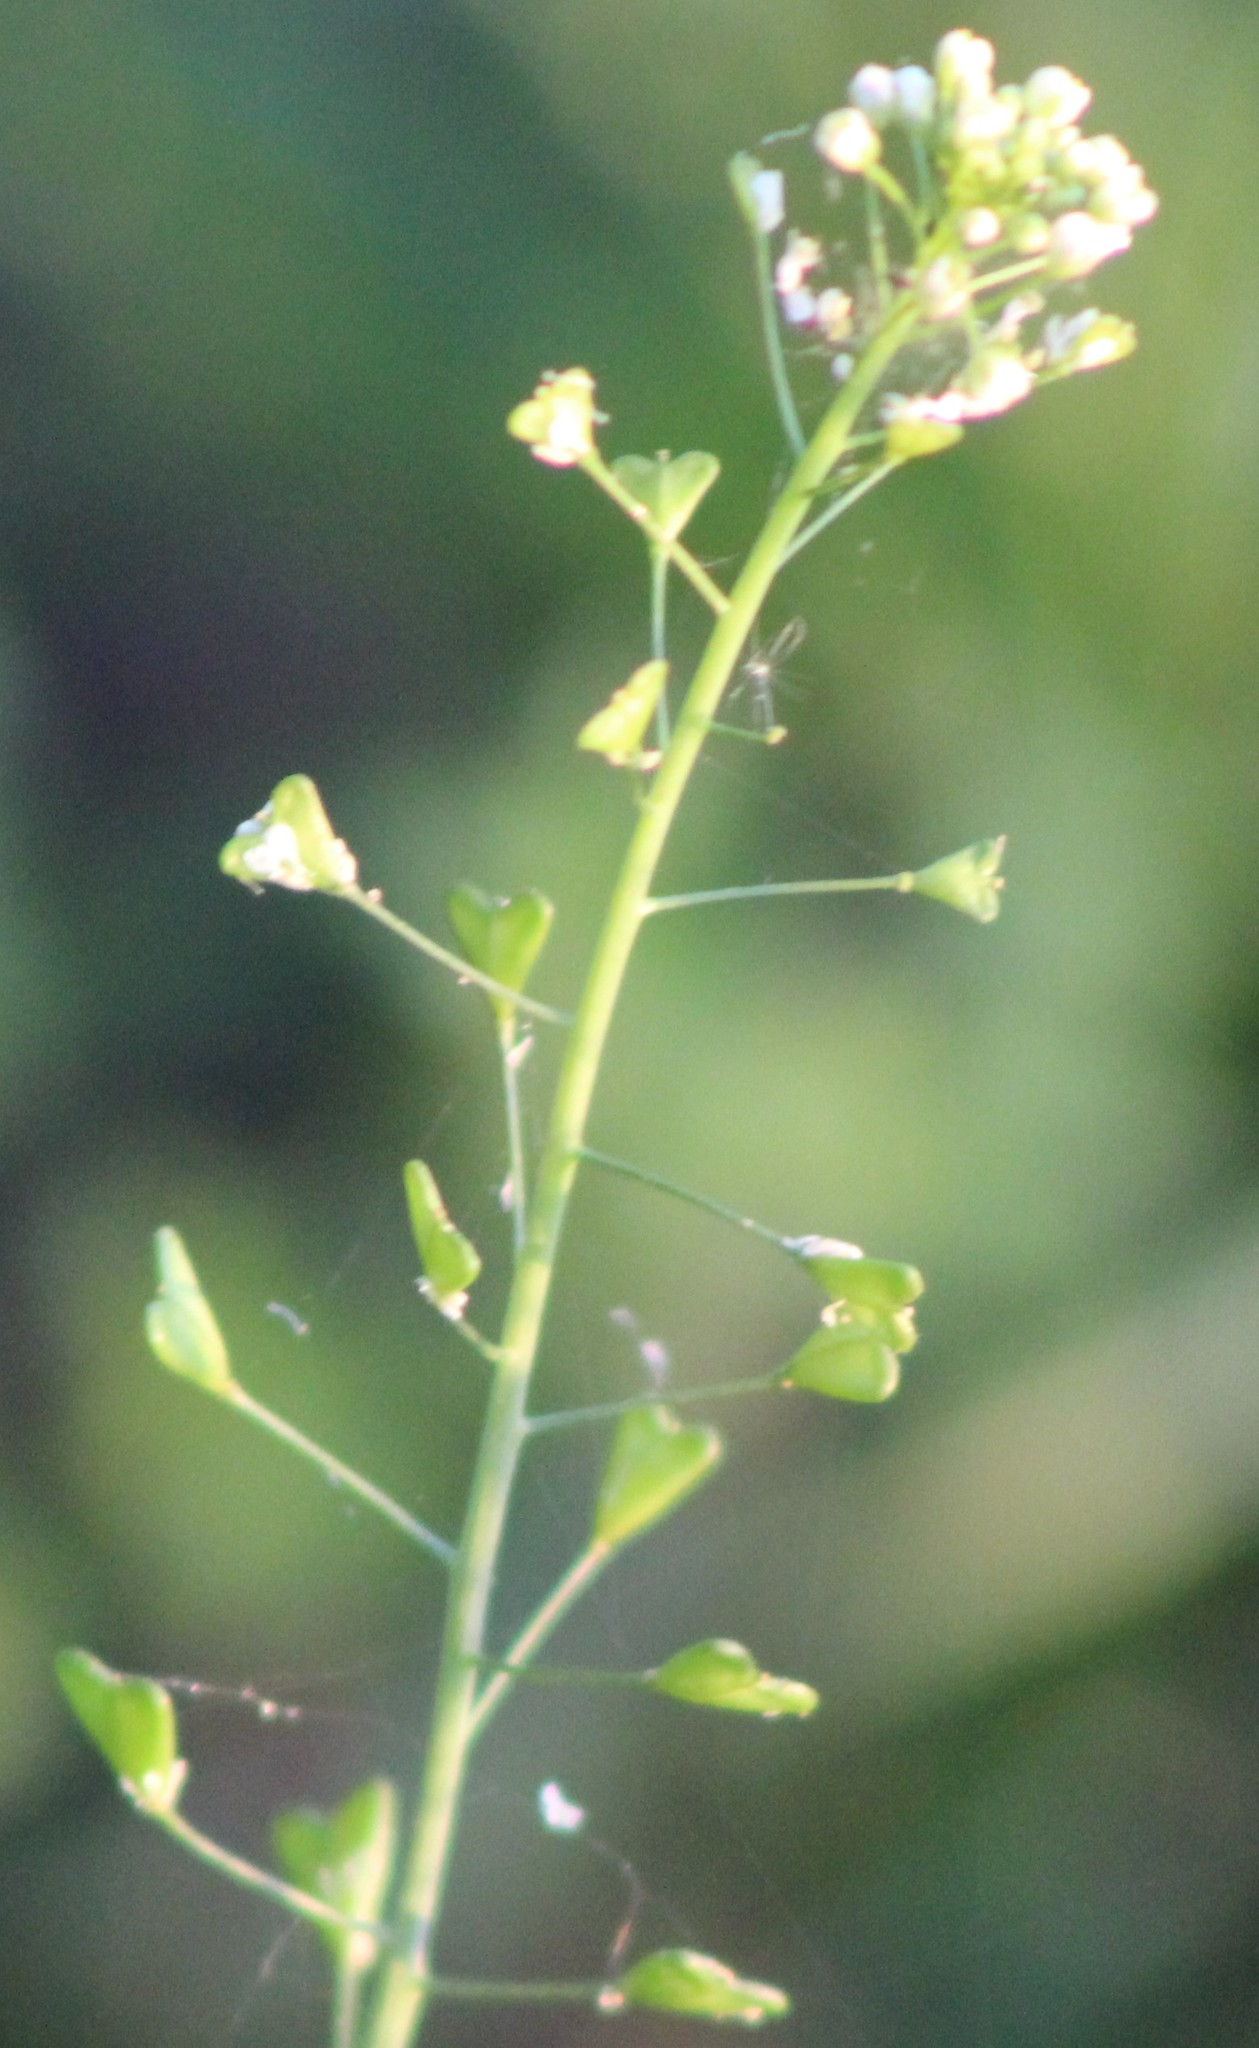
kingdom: Plantae
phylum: Tracheophyta
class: Magnoliopsida
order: Brassicales
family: Brassicaceae
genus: Capsella
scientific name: Capsella bursa-pastoris
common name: Shepherd's purse
